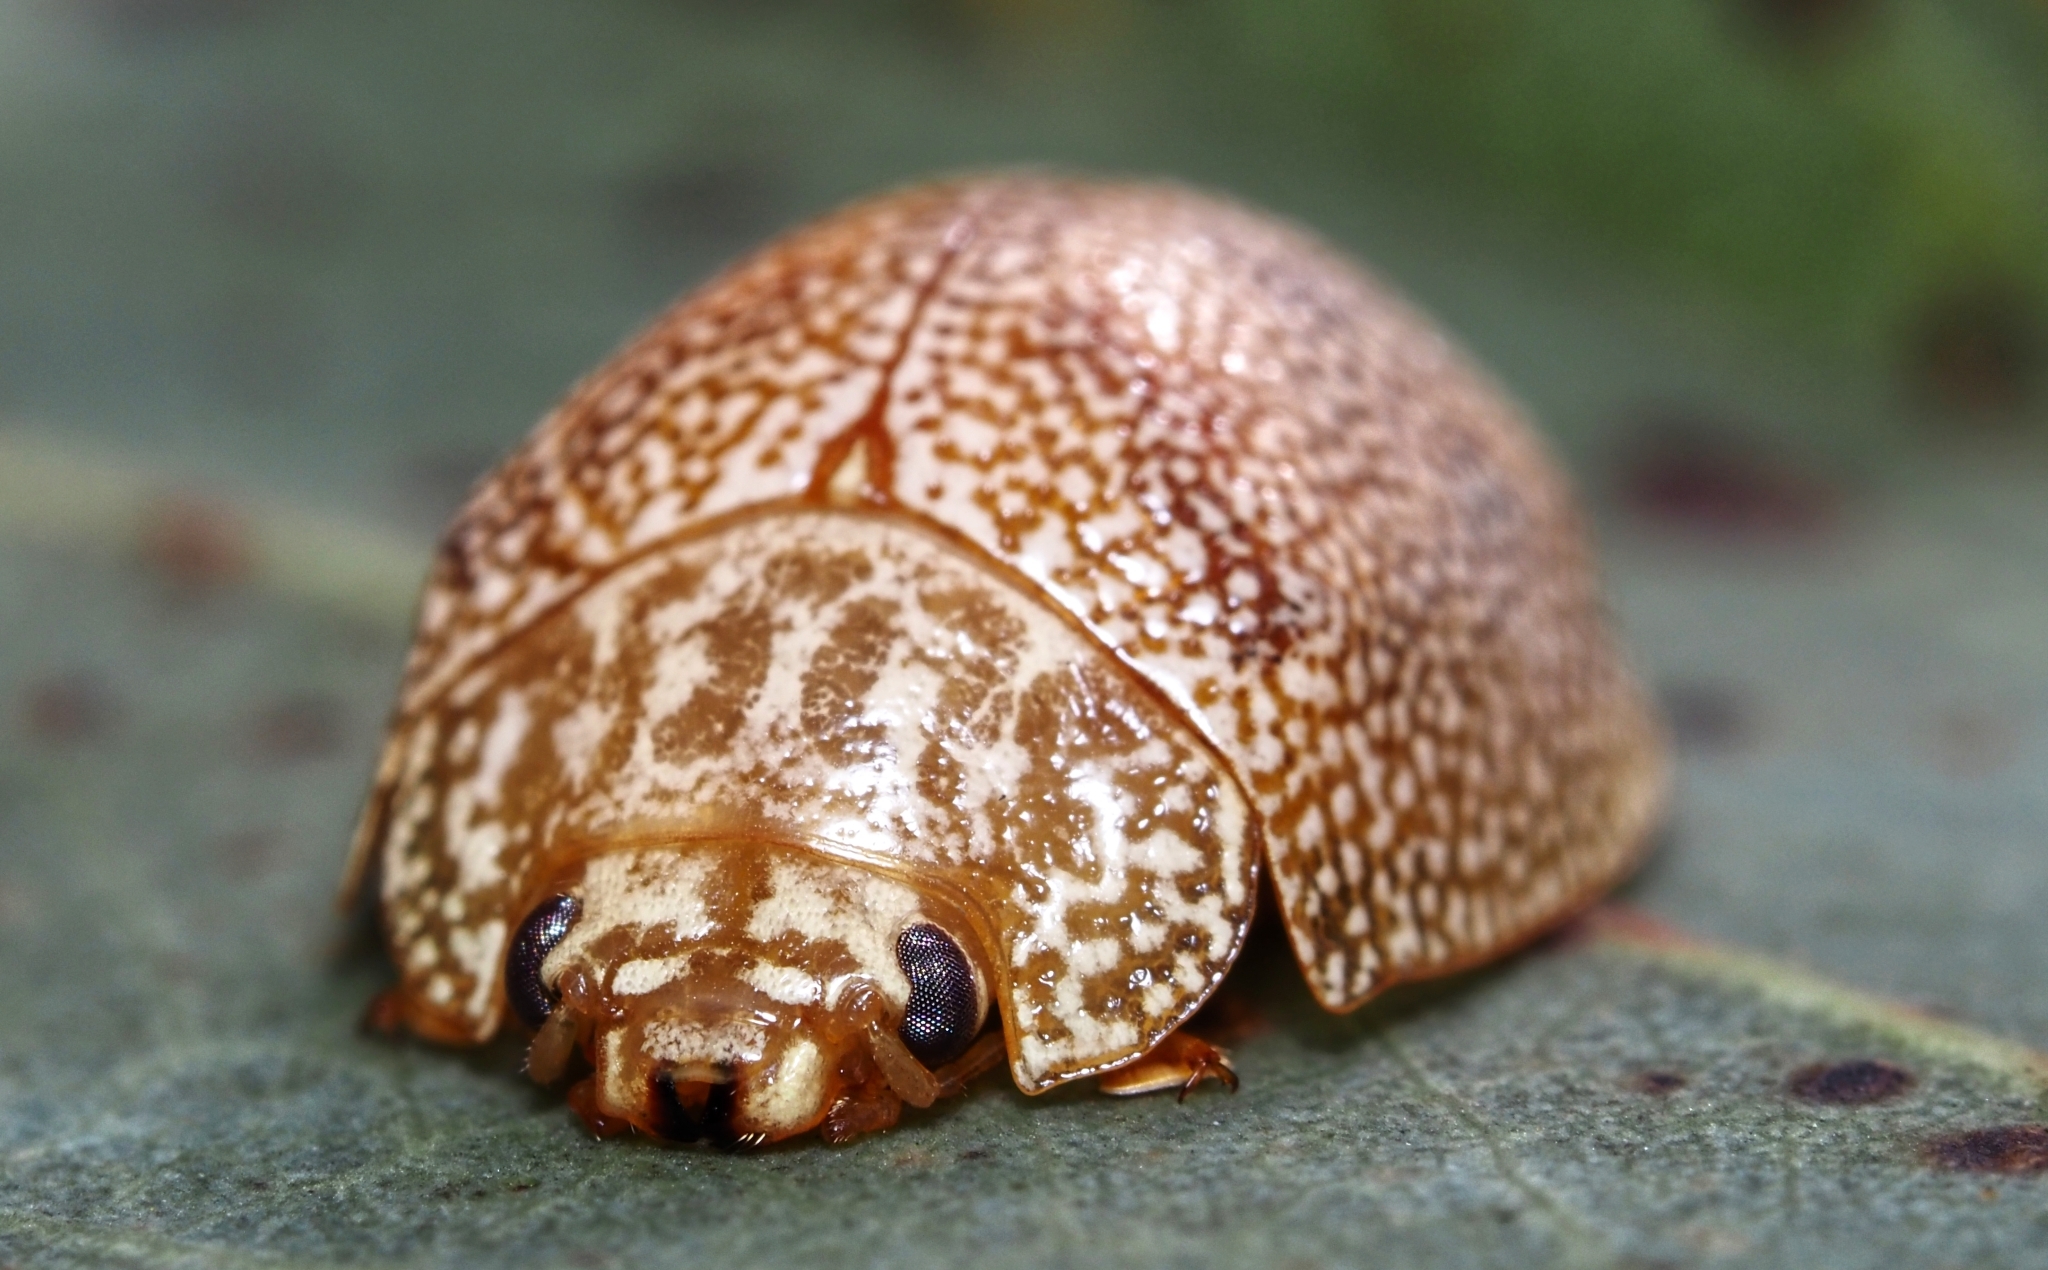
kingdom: Animalia
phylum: Arthropoda
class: Insecta
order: Coleoptera
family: Chrysomelidae
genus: Paropsis
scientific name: Paropsis
